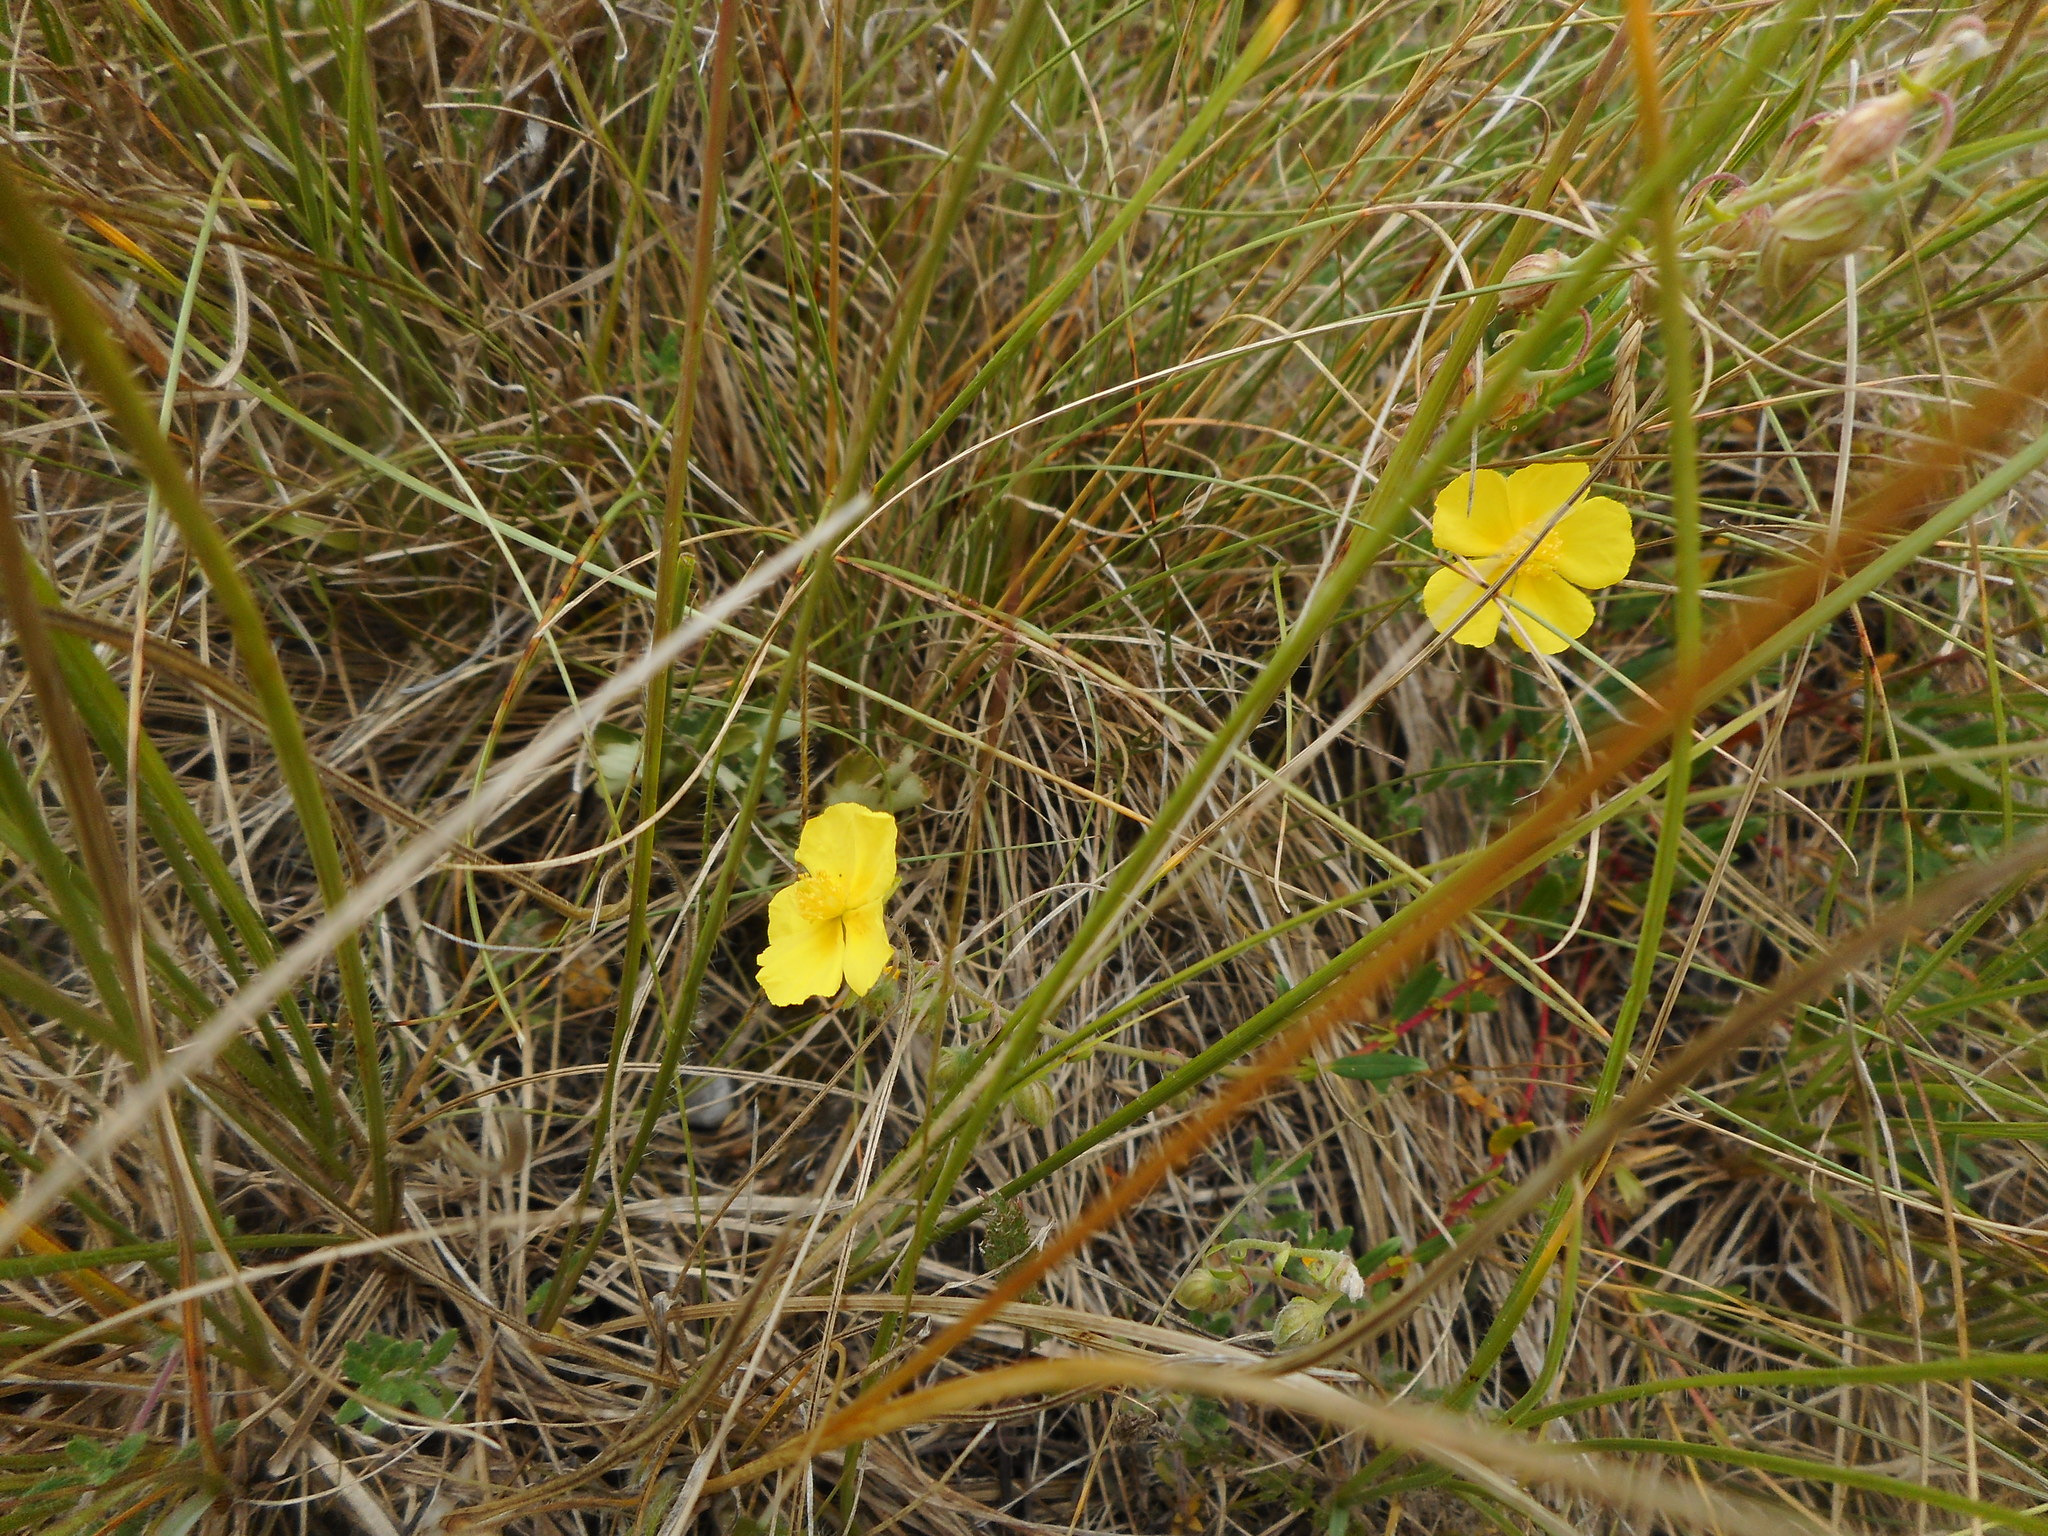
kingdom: Plantae
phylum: Tracheophyta
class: Magnoliopsida
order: Malvales
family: Cistaceae
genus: Helianthemum
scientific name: Helianthemum nummularium
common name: Common rock-rose
